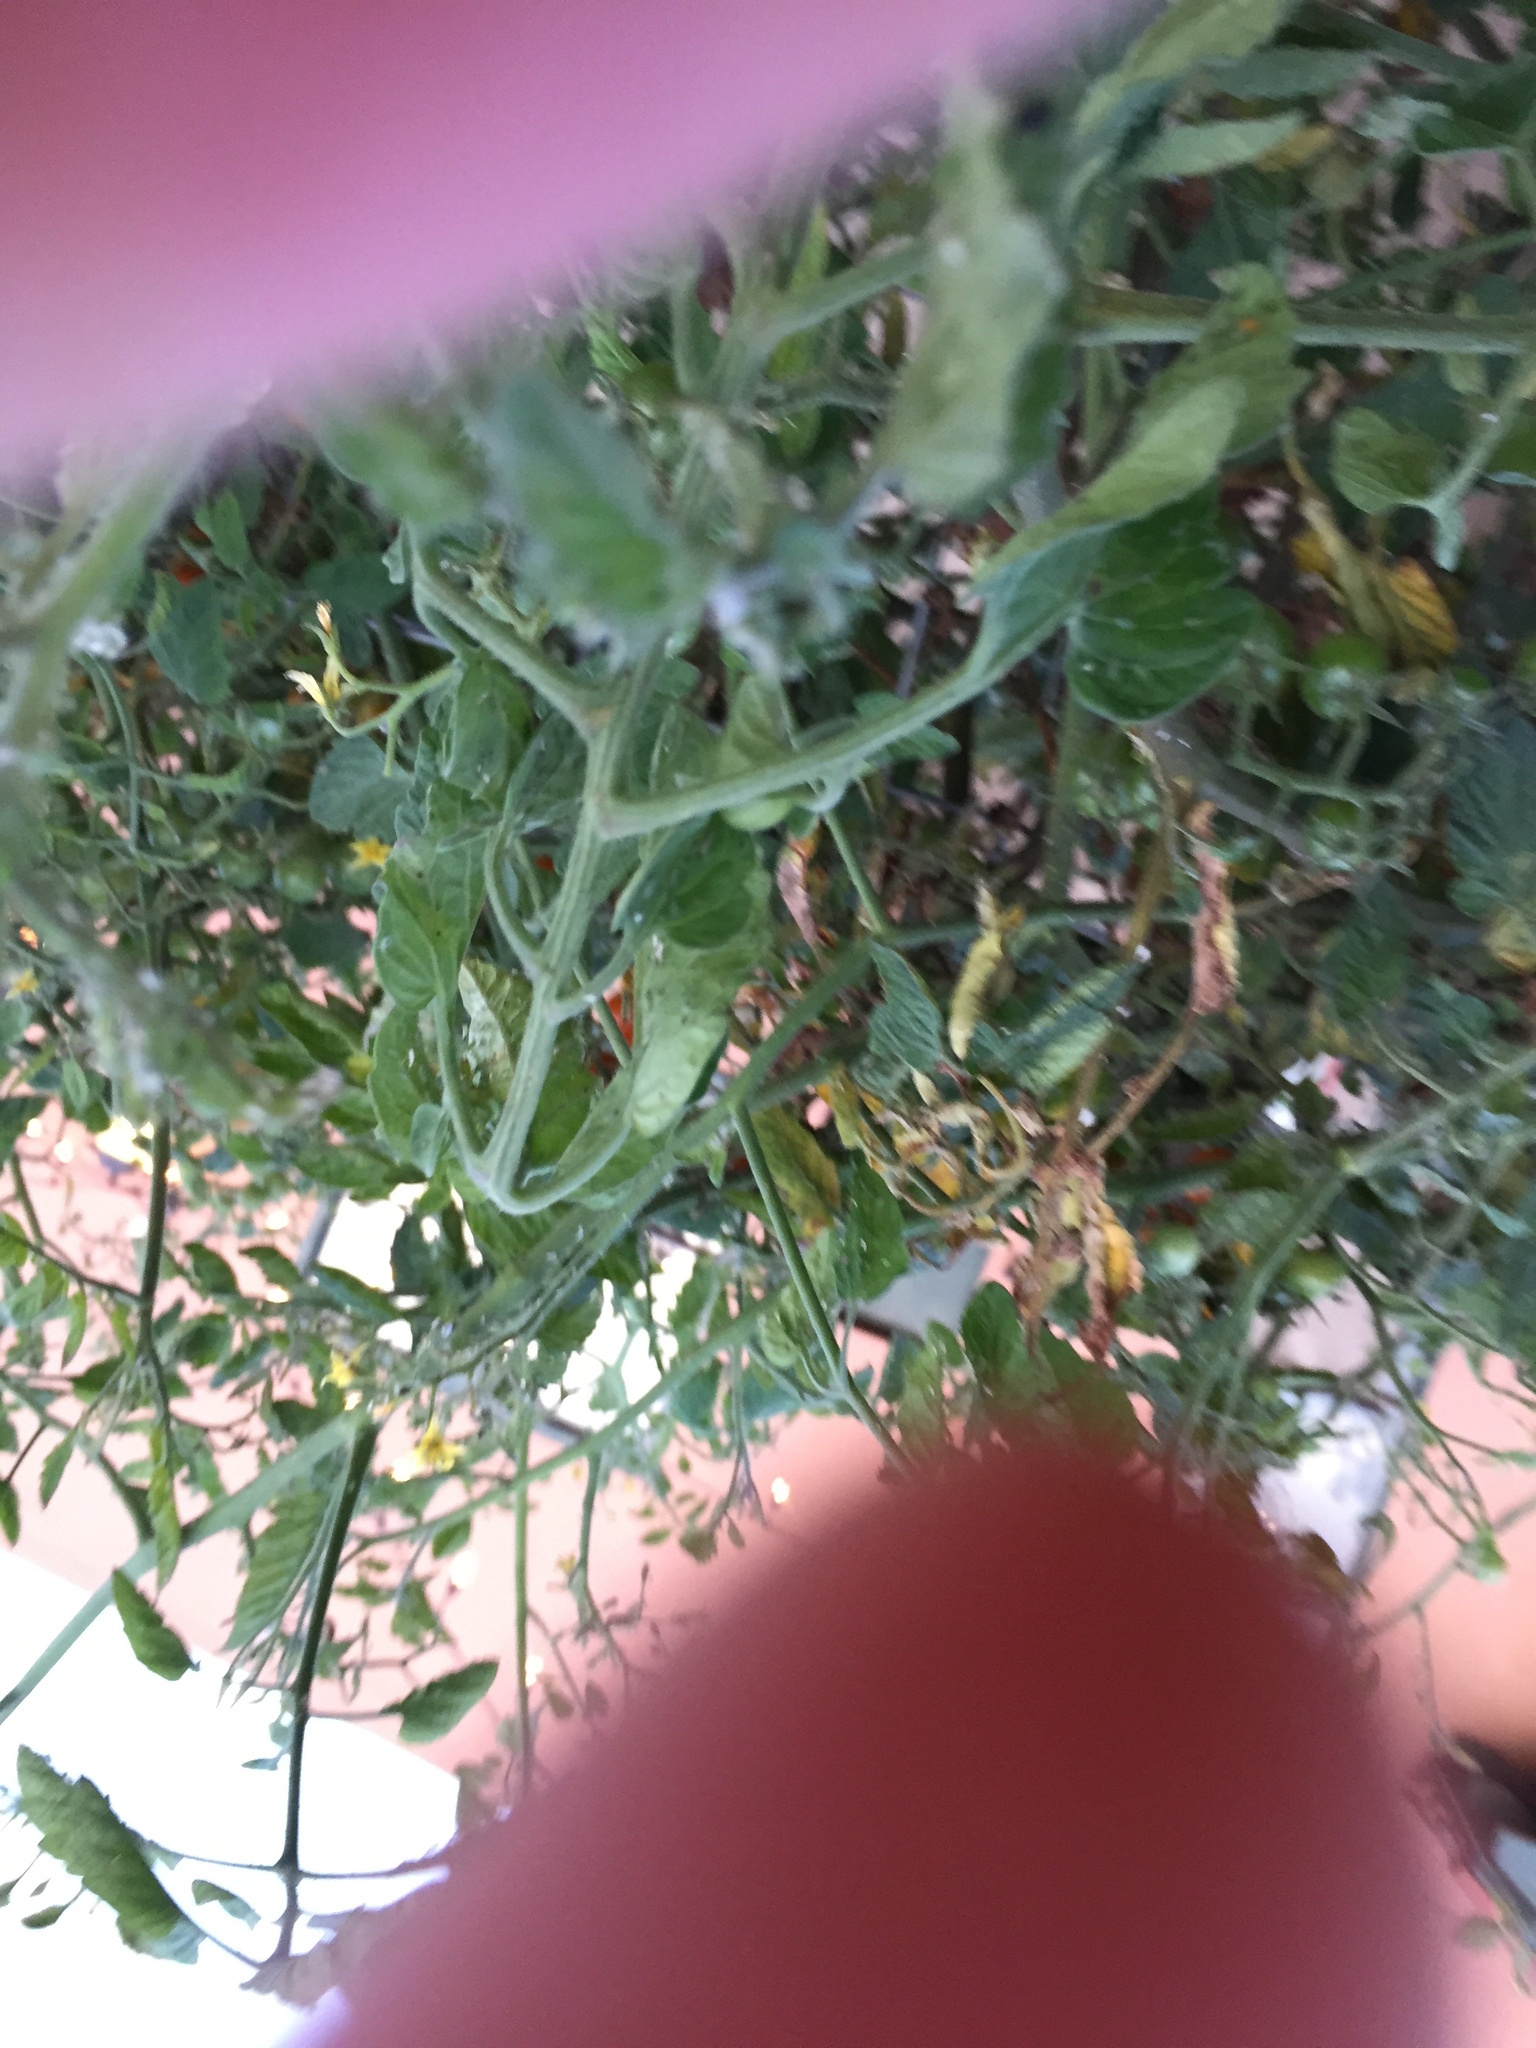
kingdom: Animalia
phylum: Arthropoda
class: Insecta
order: Coleoptera
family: Coccinellidae
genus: Harmonia
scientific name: Harmonia axyridis
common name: Harlequin ladybird
